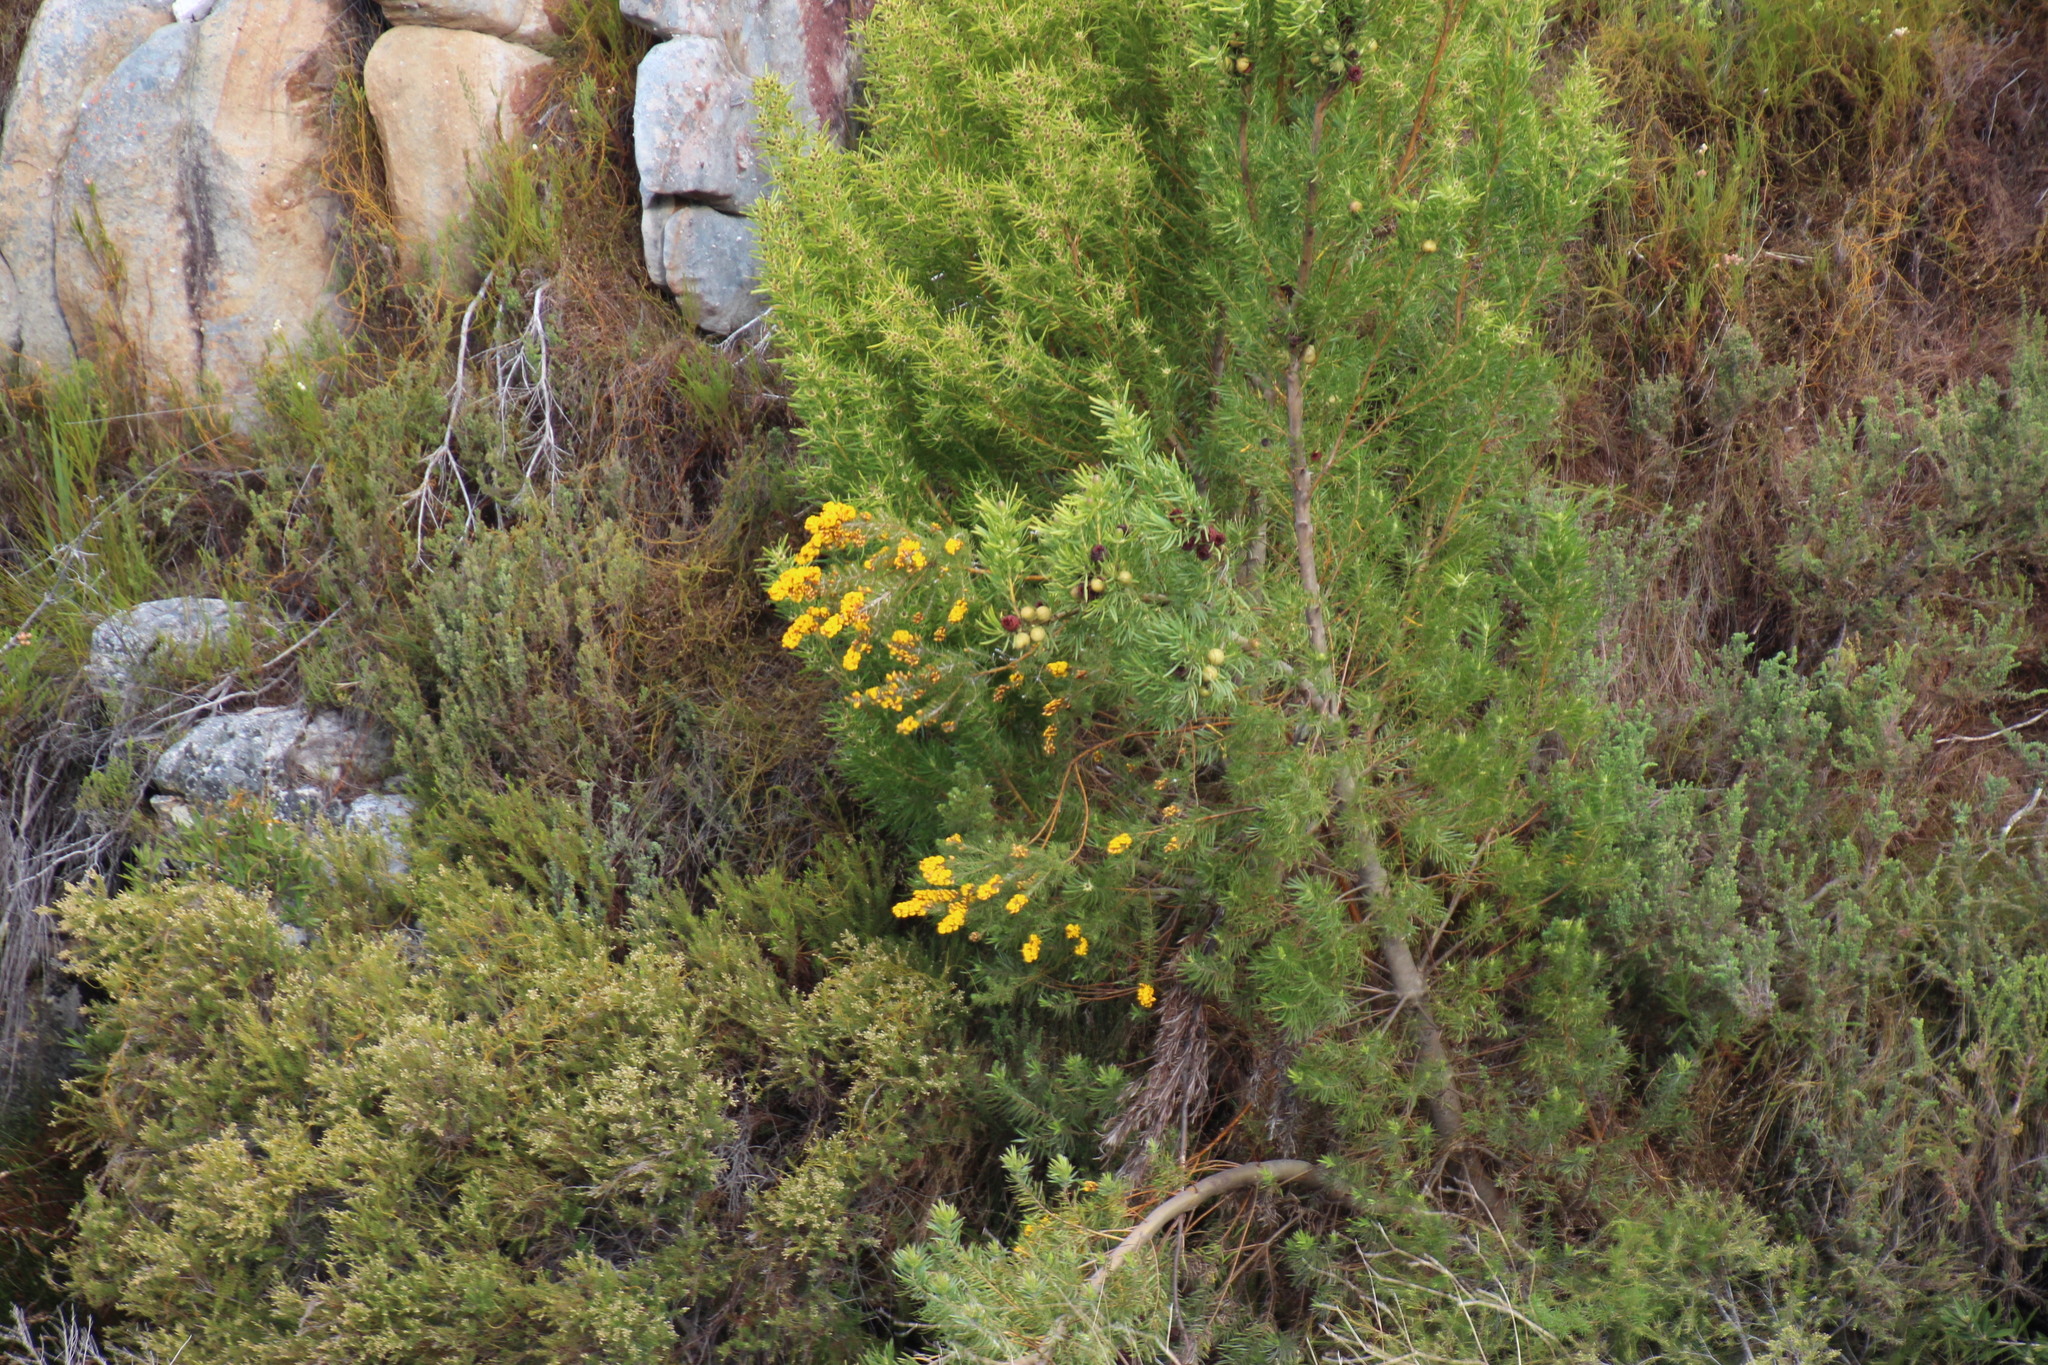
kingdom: Plantae
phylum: Tracheophyta
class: Magnoliopsida
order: Proteales
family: Proteaceae
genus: Leucadendron
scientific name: Leucadendron salicifolium
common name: Common stream conebush
